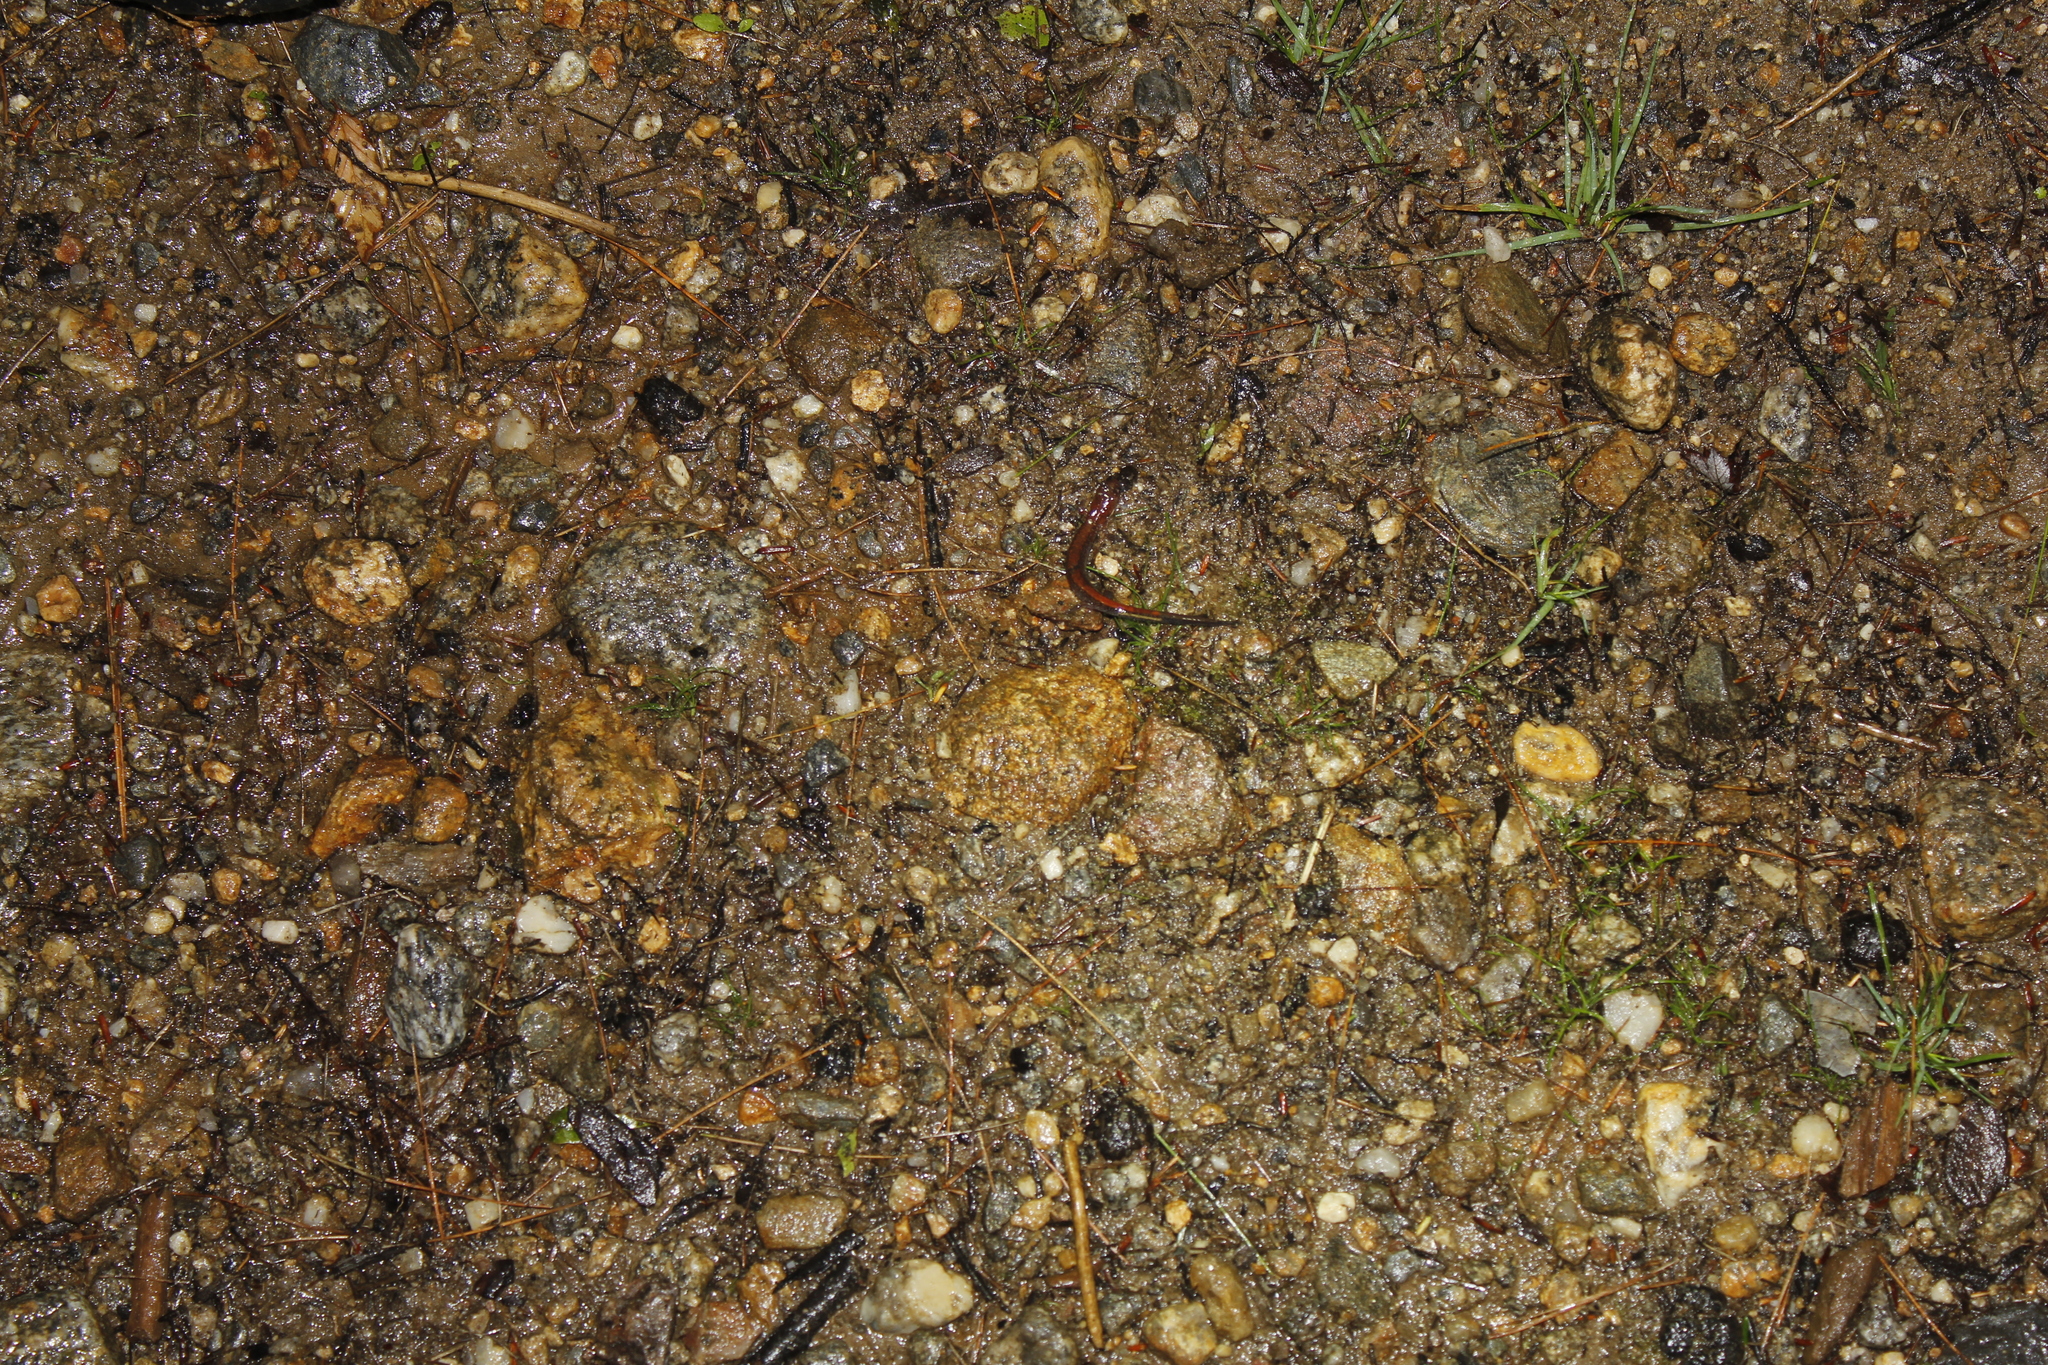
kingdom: Animalia
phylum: Chordata
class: Amphibia
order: Caudata
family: Plethodontidae
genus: Plethodon
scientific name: Plethodon cinereus
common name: Redback salamander
